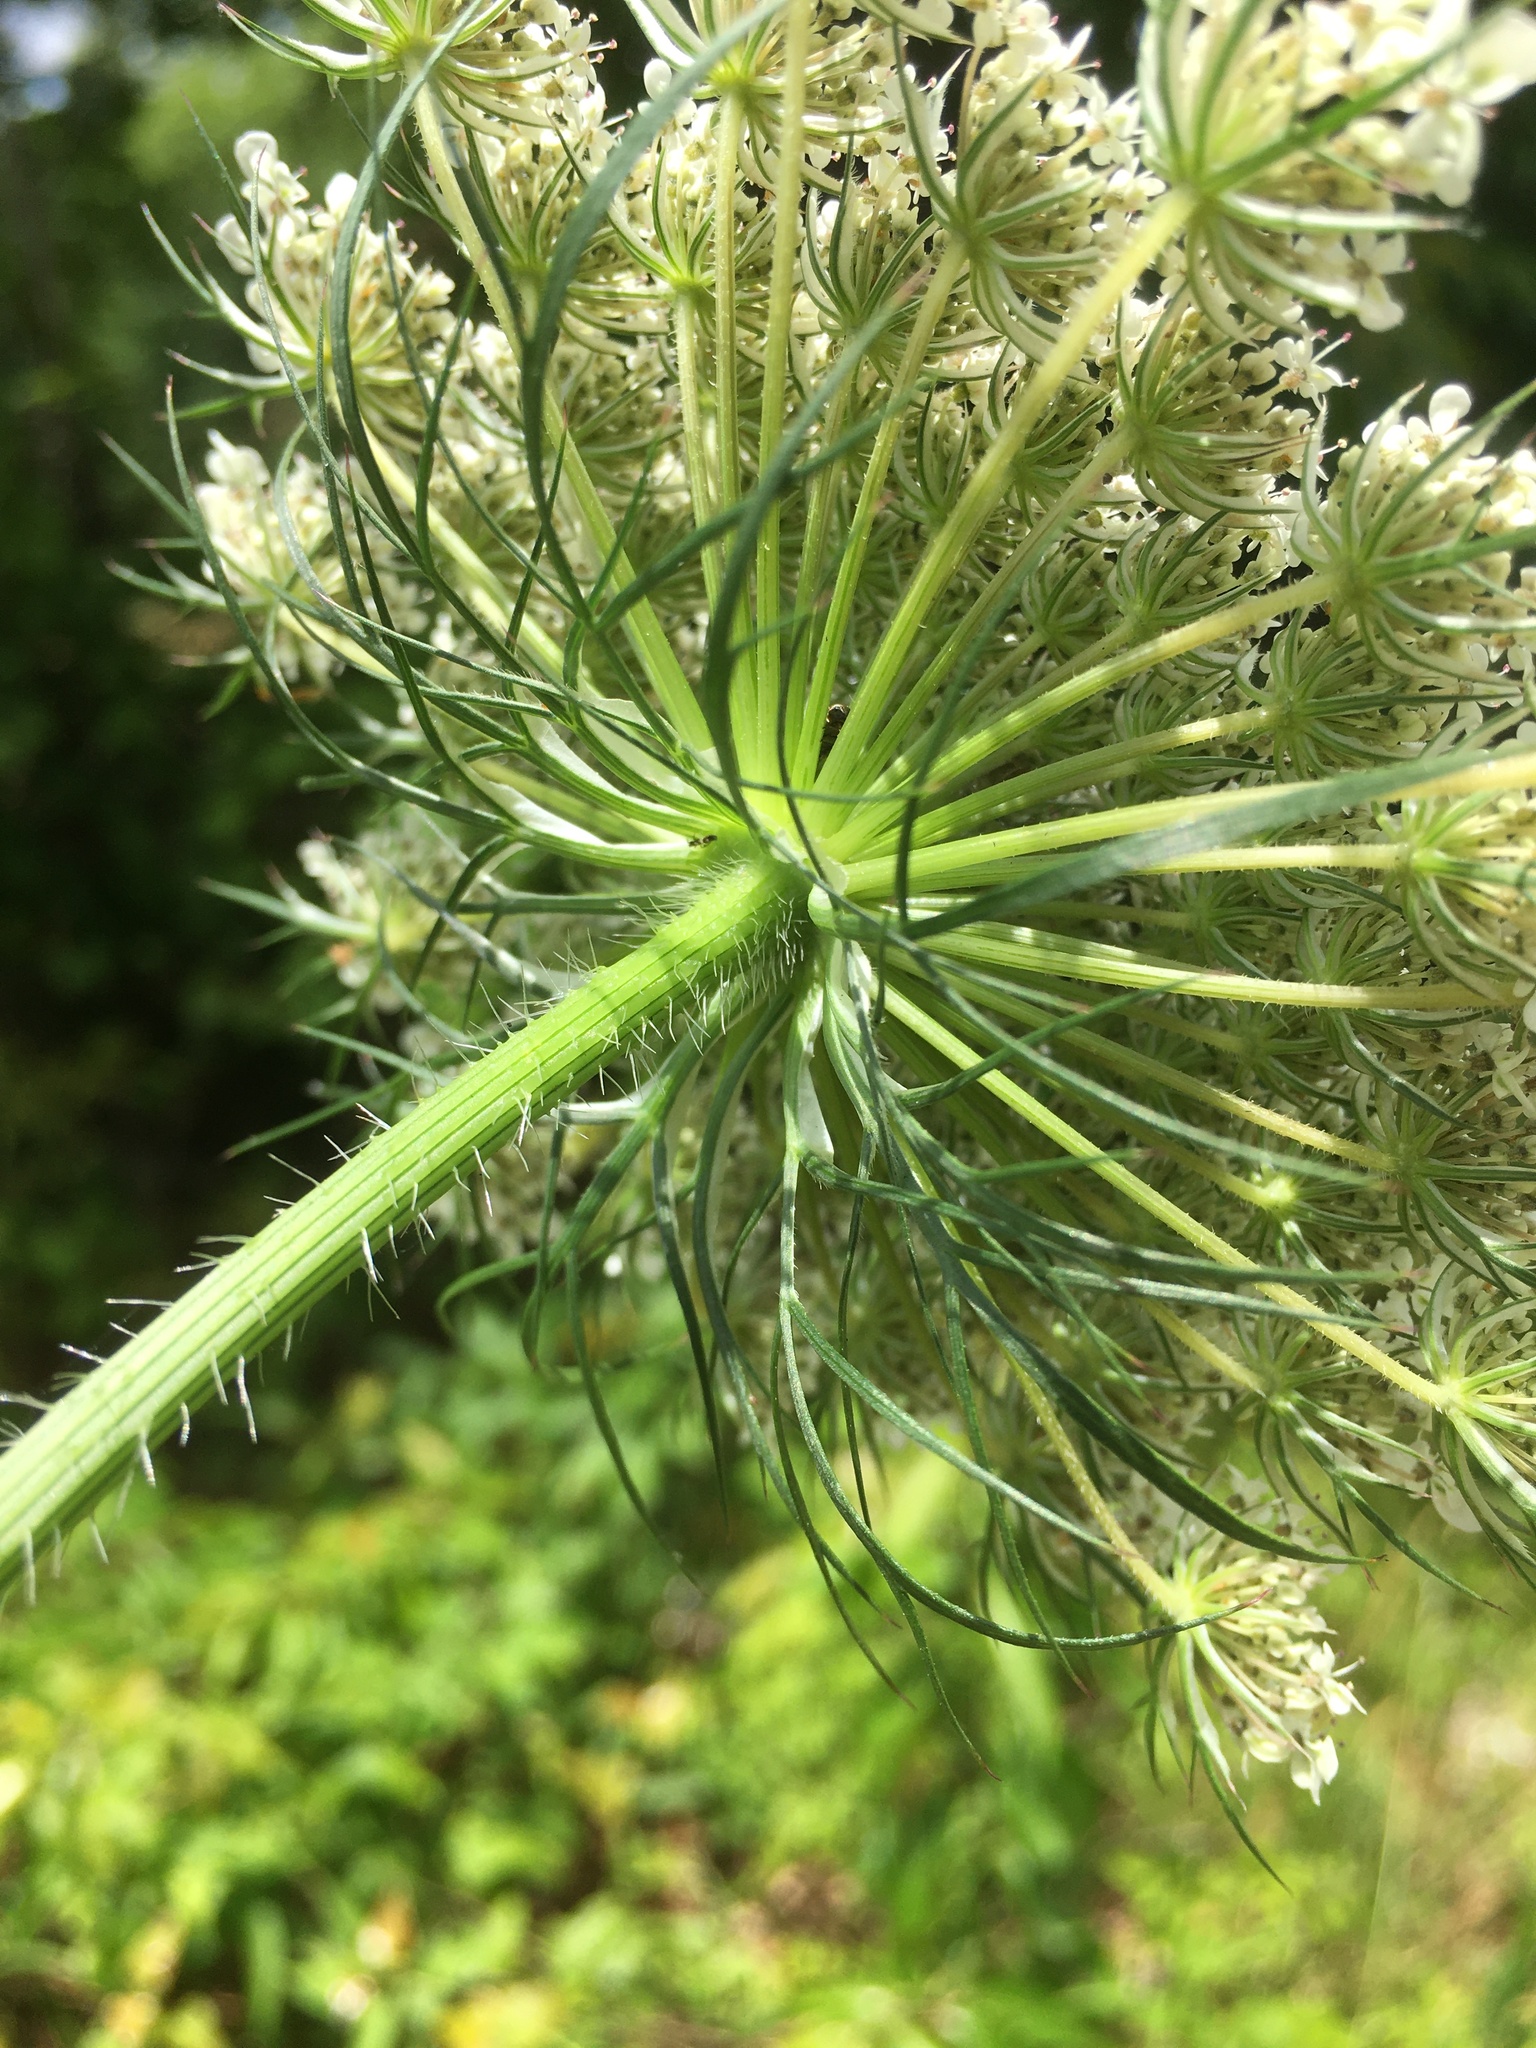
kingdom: Plantae
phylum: Tracheophyta
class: Magnoliopsida
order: Apiales
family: Apiaceae
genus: Daucus
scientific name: Daucus carota
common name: Wild carrot
